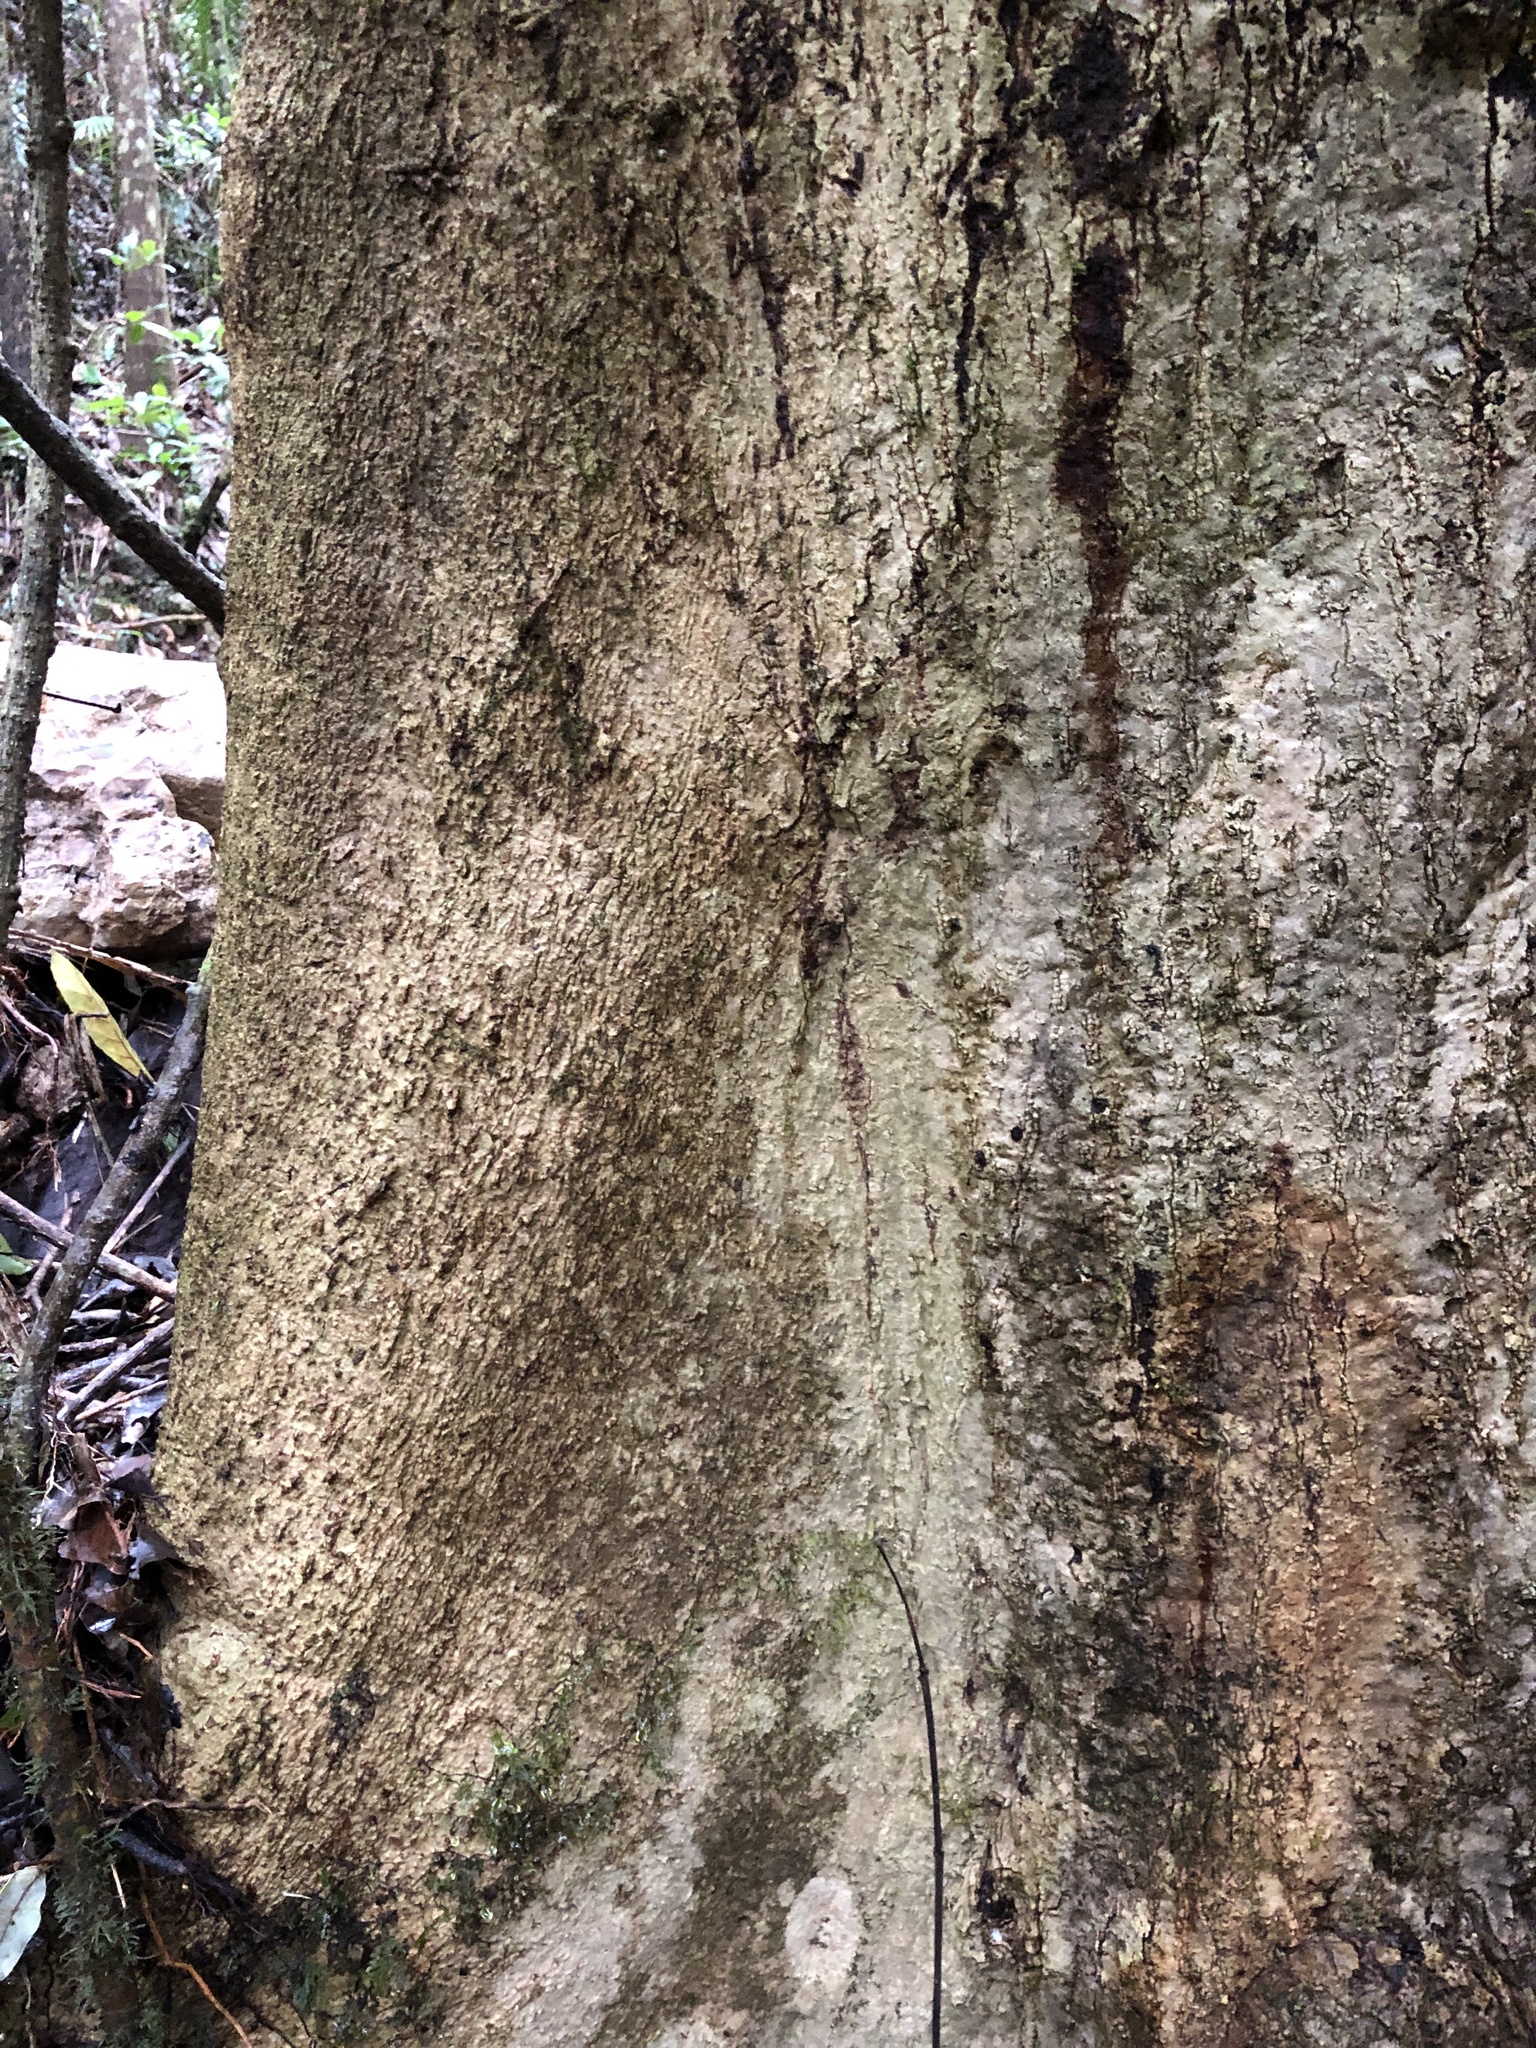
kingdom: Plantae
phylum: Tracheophyta
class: Magnoliopsida
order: Malvales
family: Malvaceae
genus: Argyrodendron
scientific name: Argyrodendron trifoliolatum
